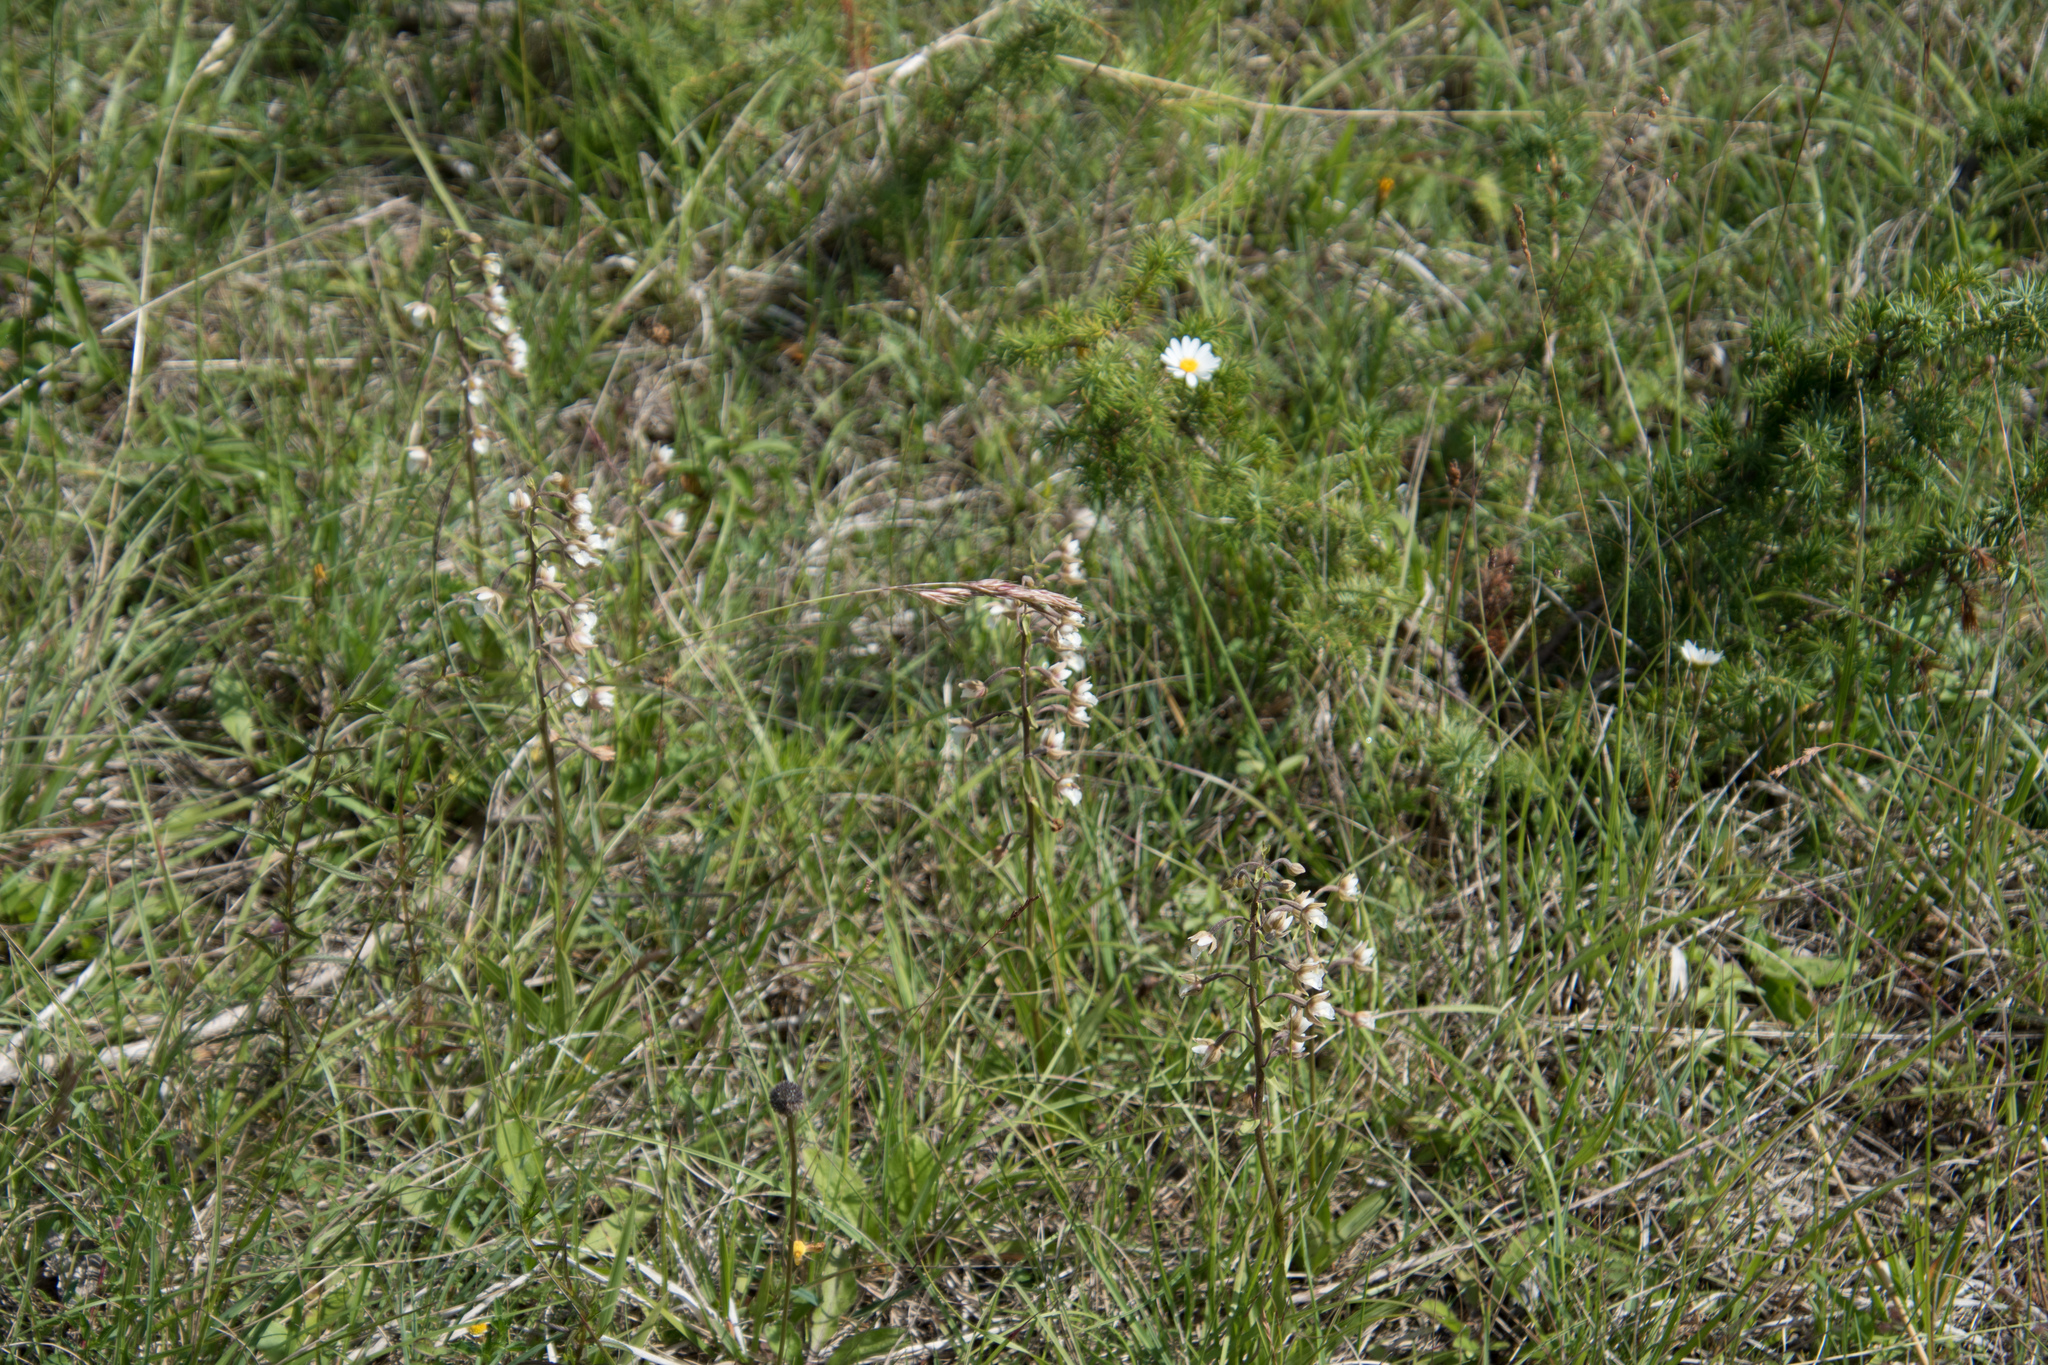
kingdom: Plantae
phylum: Tracheophyta
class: Liliopsida
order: Asparagales
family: Orchidaceae
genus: Epipactis
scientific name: Epipactis palustris
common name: Marsh helleborine
